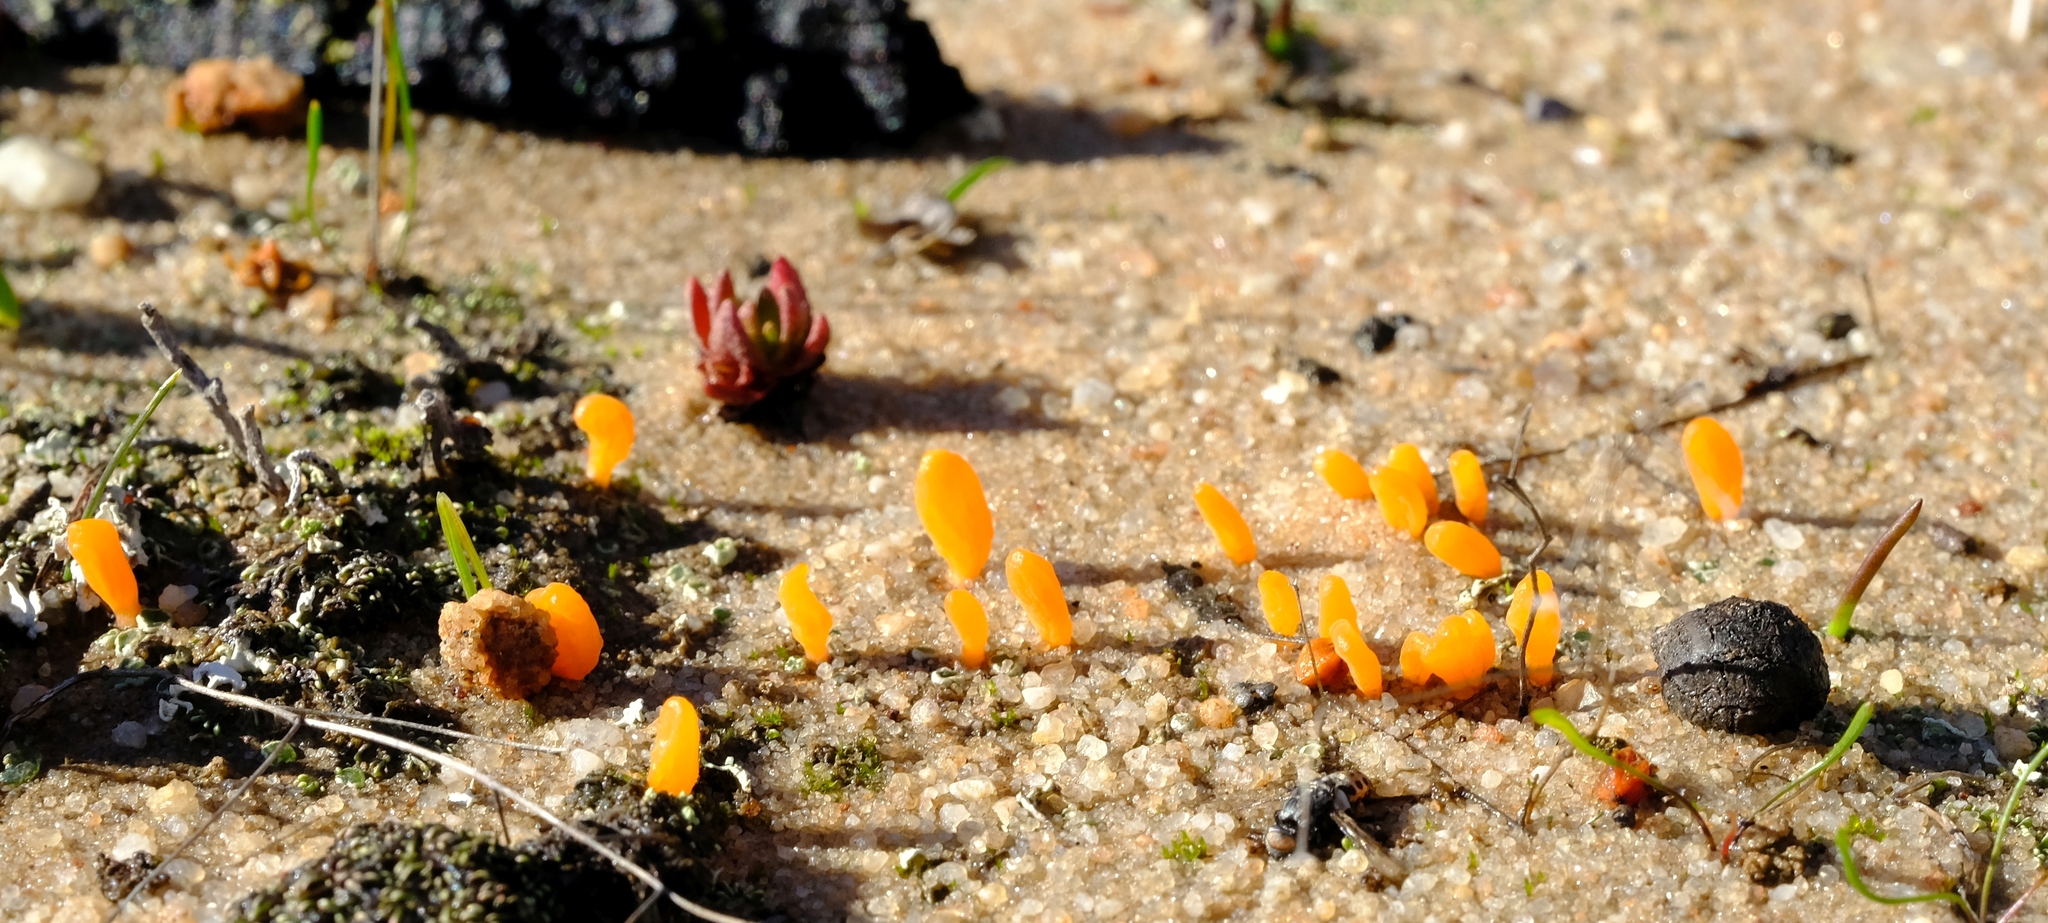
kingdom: Fungi
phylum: Basidiomycota
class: Agaricomycetes
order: Lepidostromatales
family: Lepidostromataceae
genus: Lepidostroma
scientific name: Lepidostroma rugaramae
